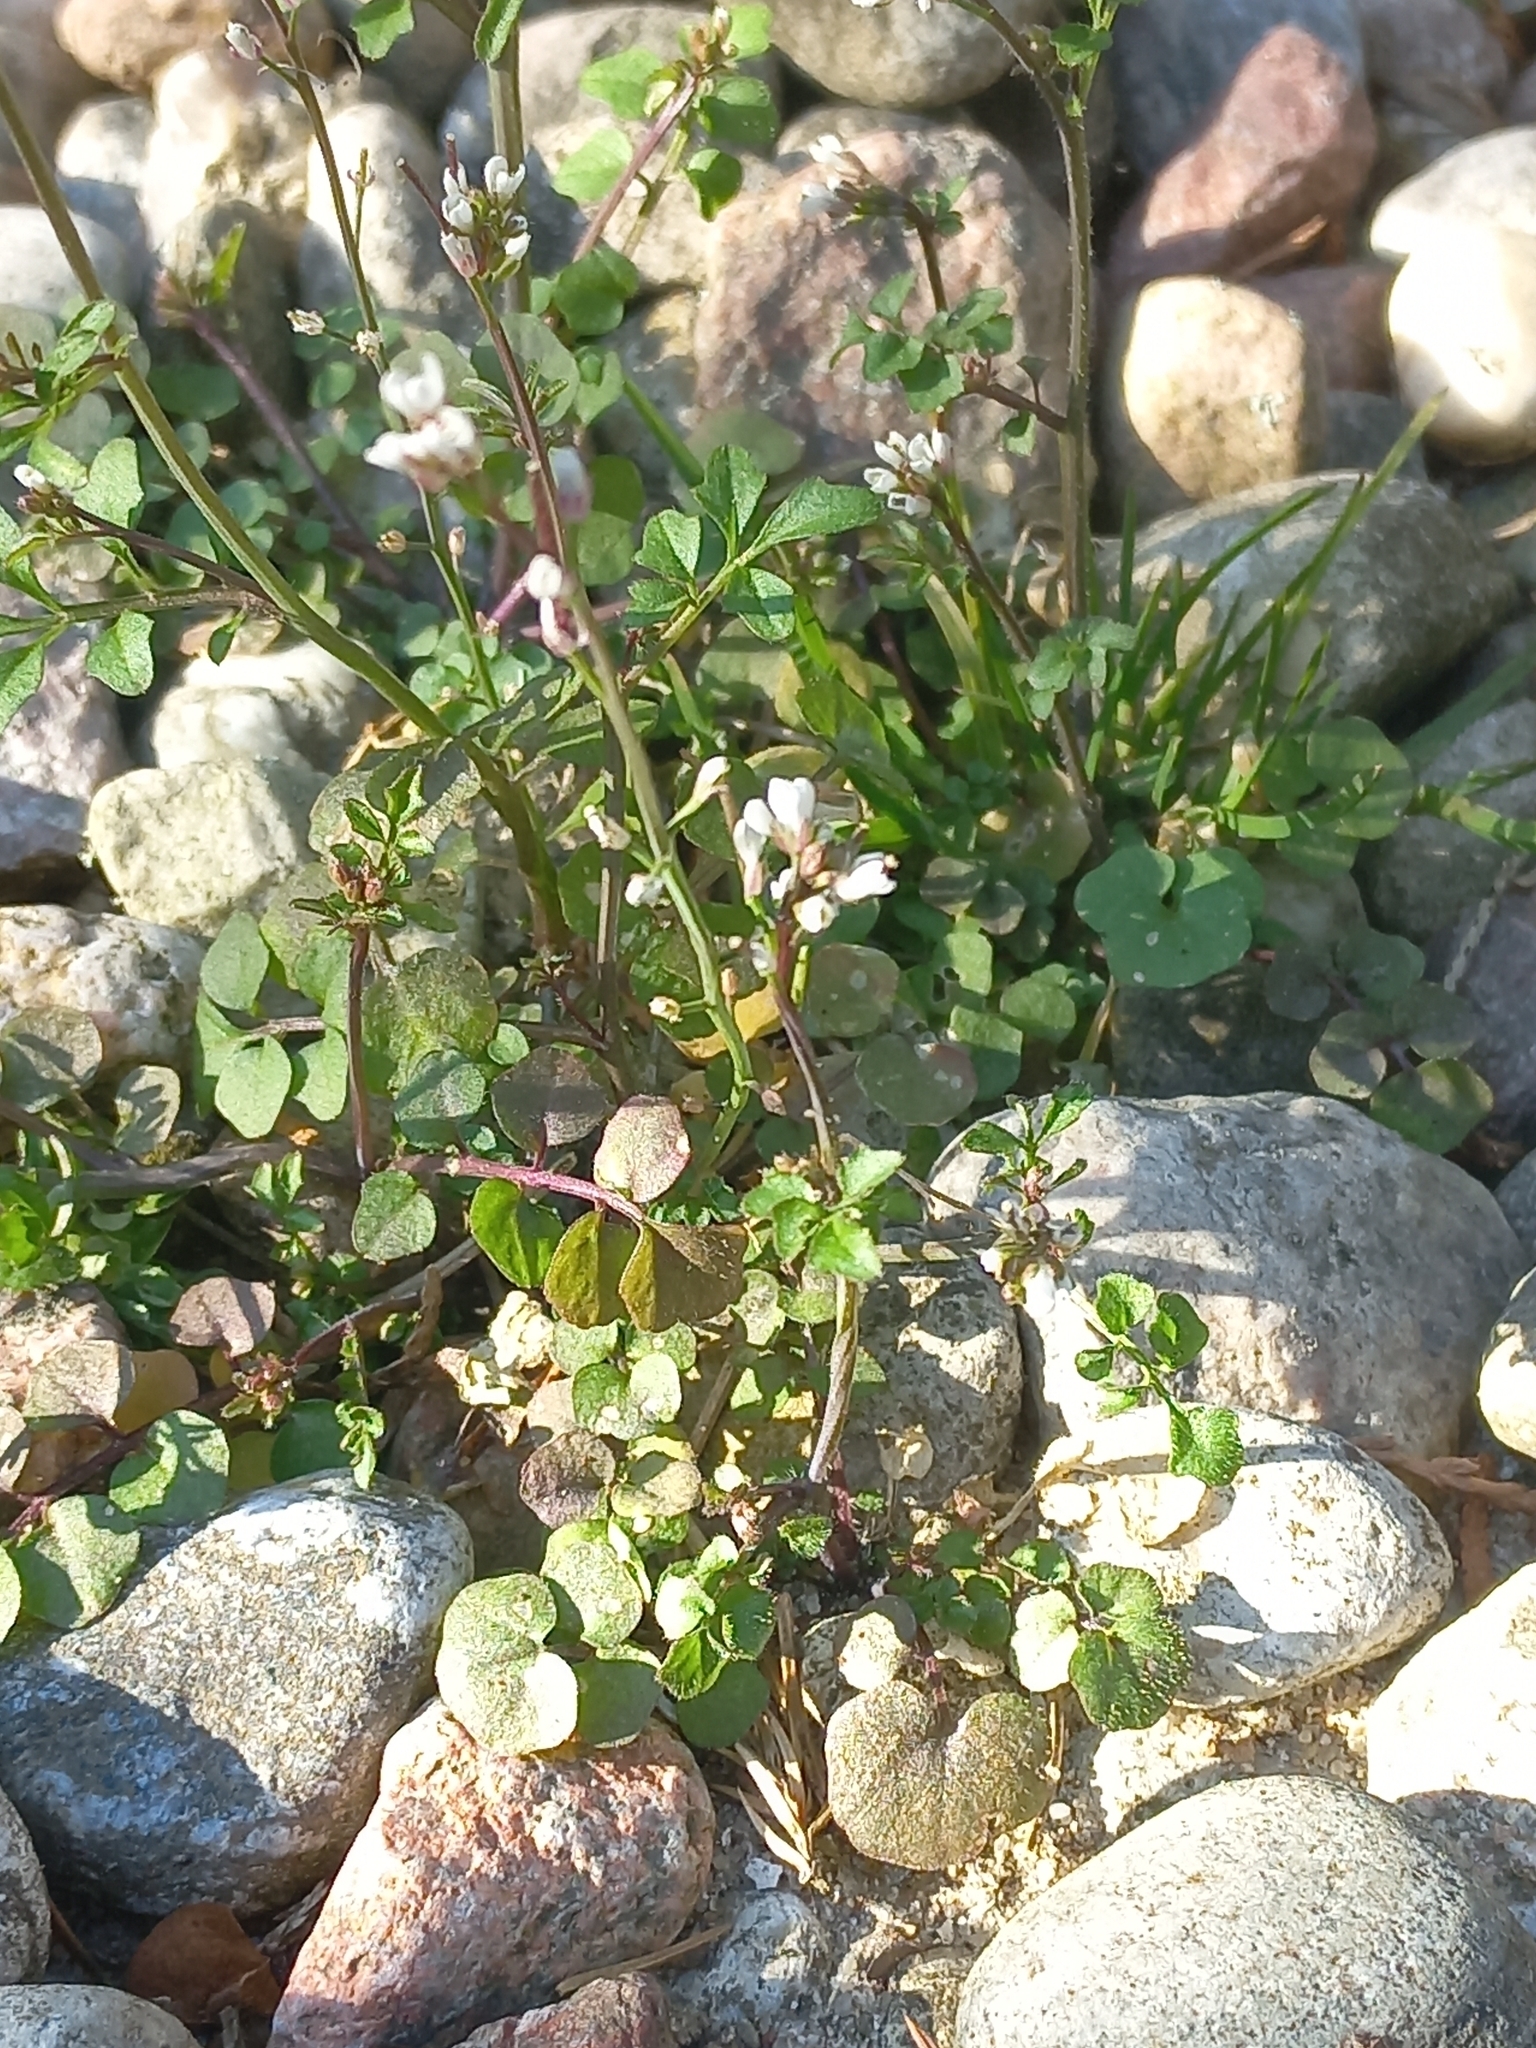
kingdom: Plantae
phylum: Tracheophyta
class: Magnoliopsida
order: Brassicales
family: Brassicaceae
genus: Cardamine
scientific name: Cardamine hirsuta
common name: Hairy bittercress
